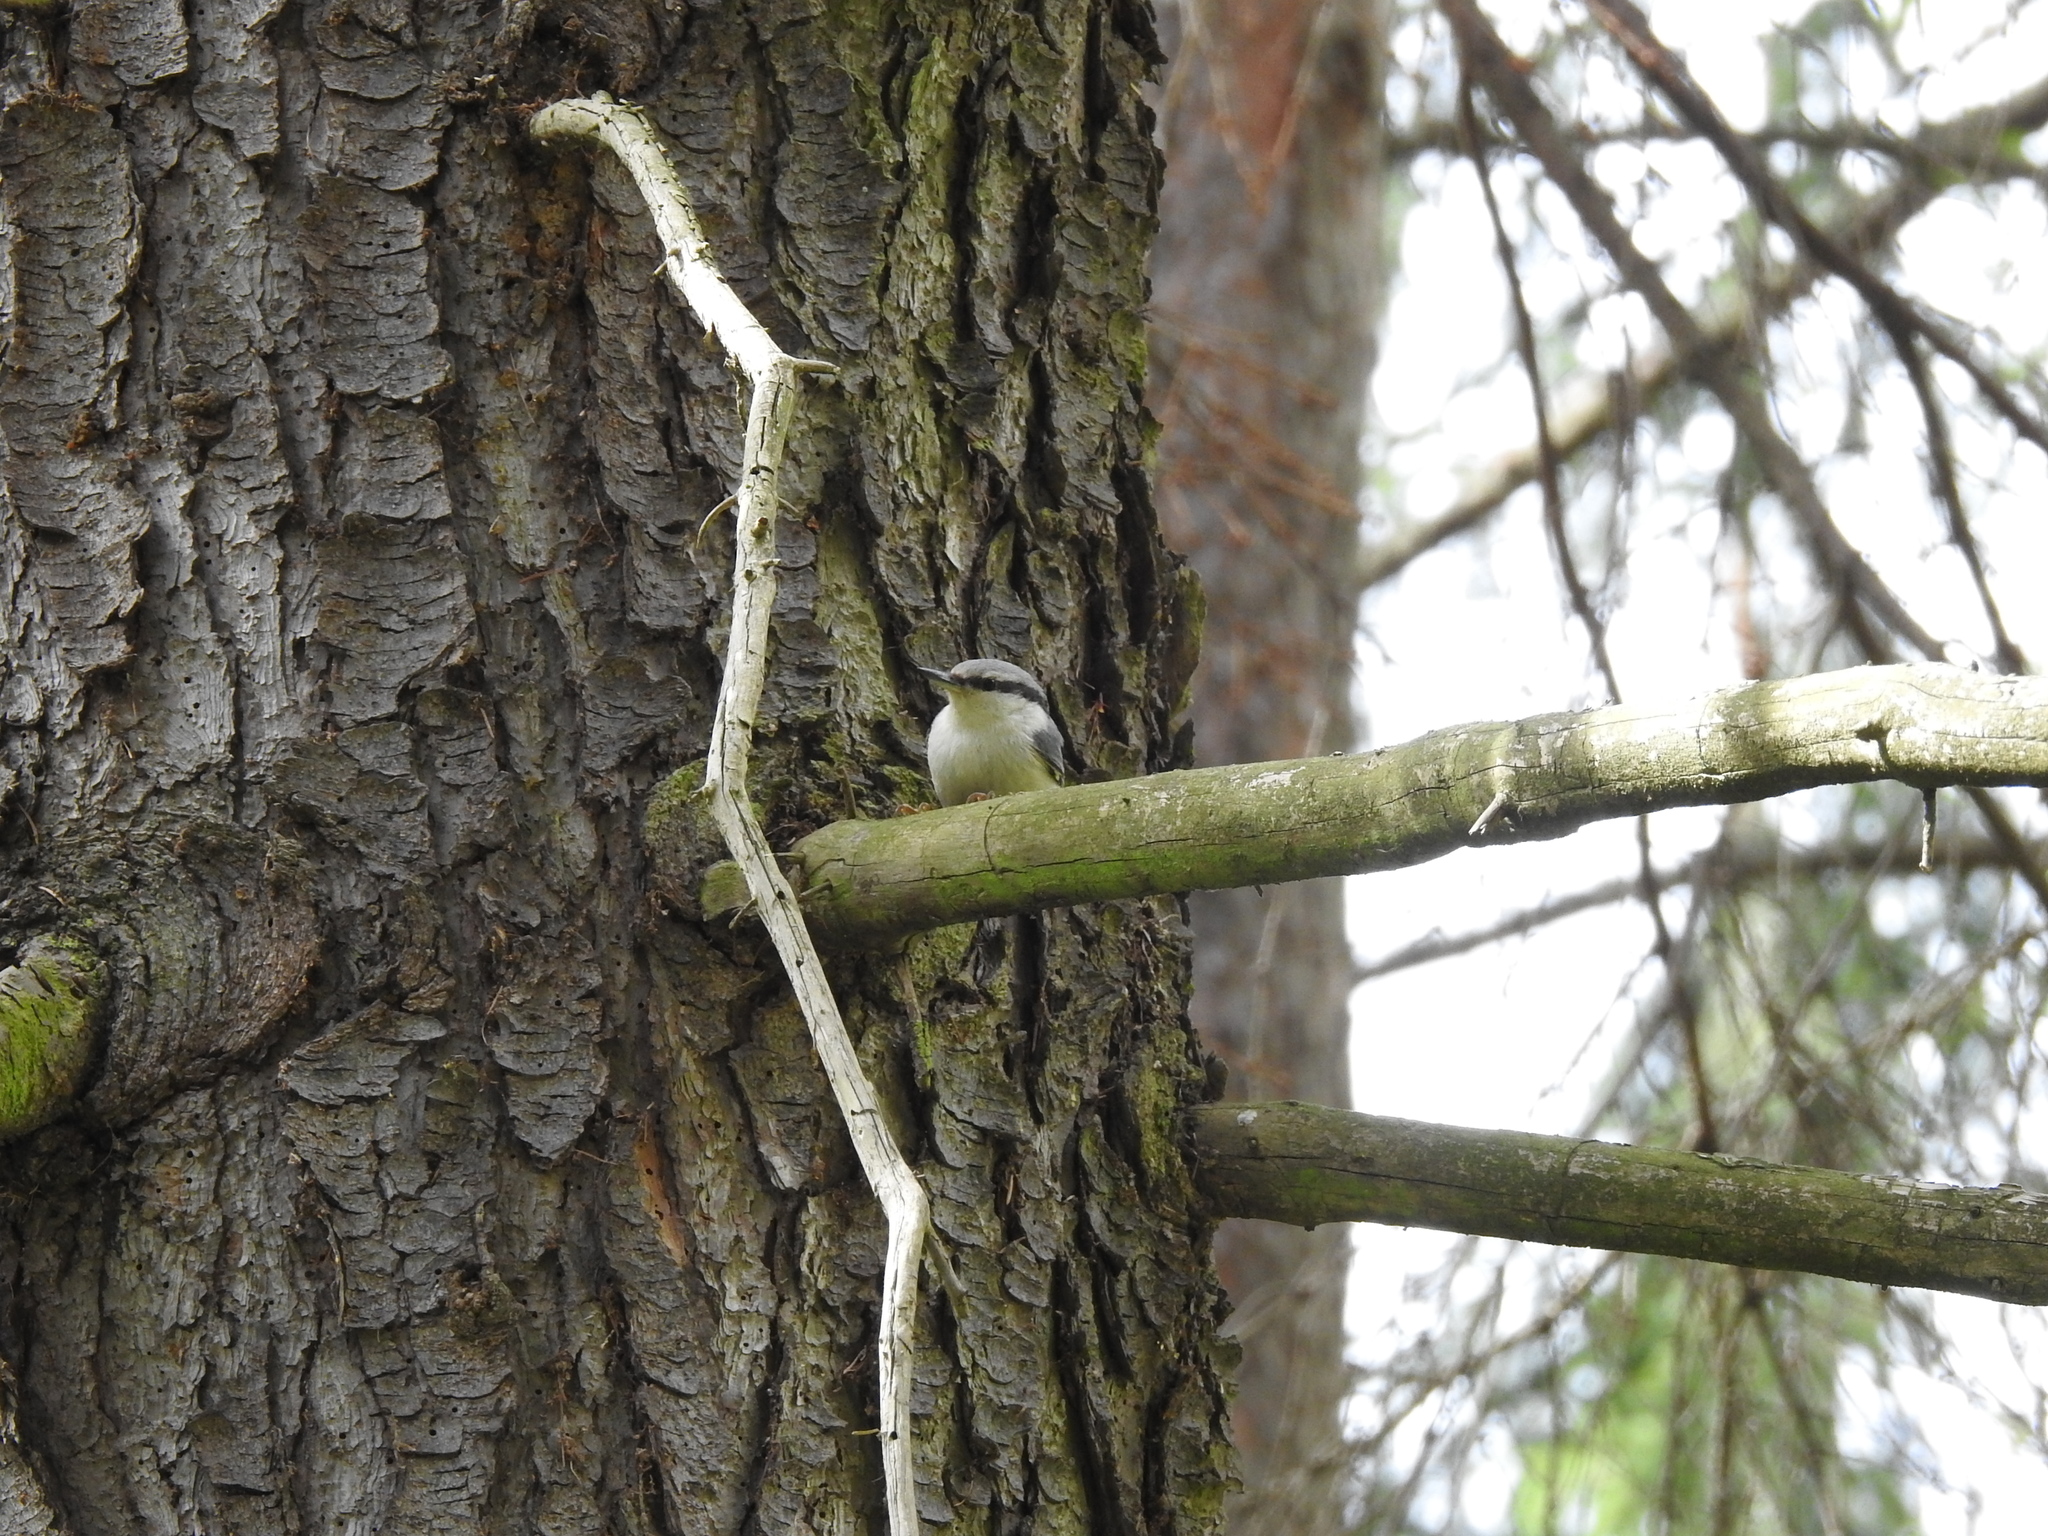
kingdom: Animalia
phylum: Chordata
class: Aves
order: Passeriformes
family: Sittidae
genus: Sitta
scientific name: Sitta europaea
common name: Eurasian nuthatch
